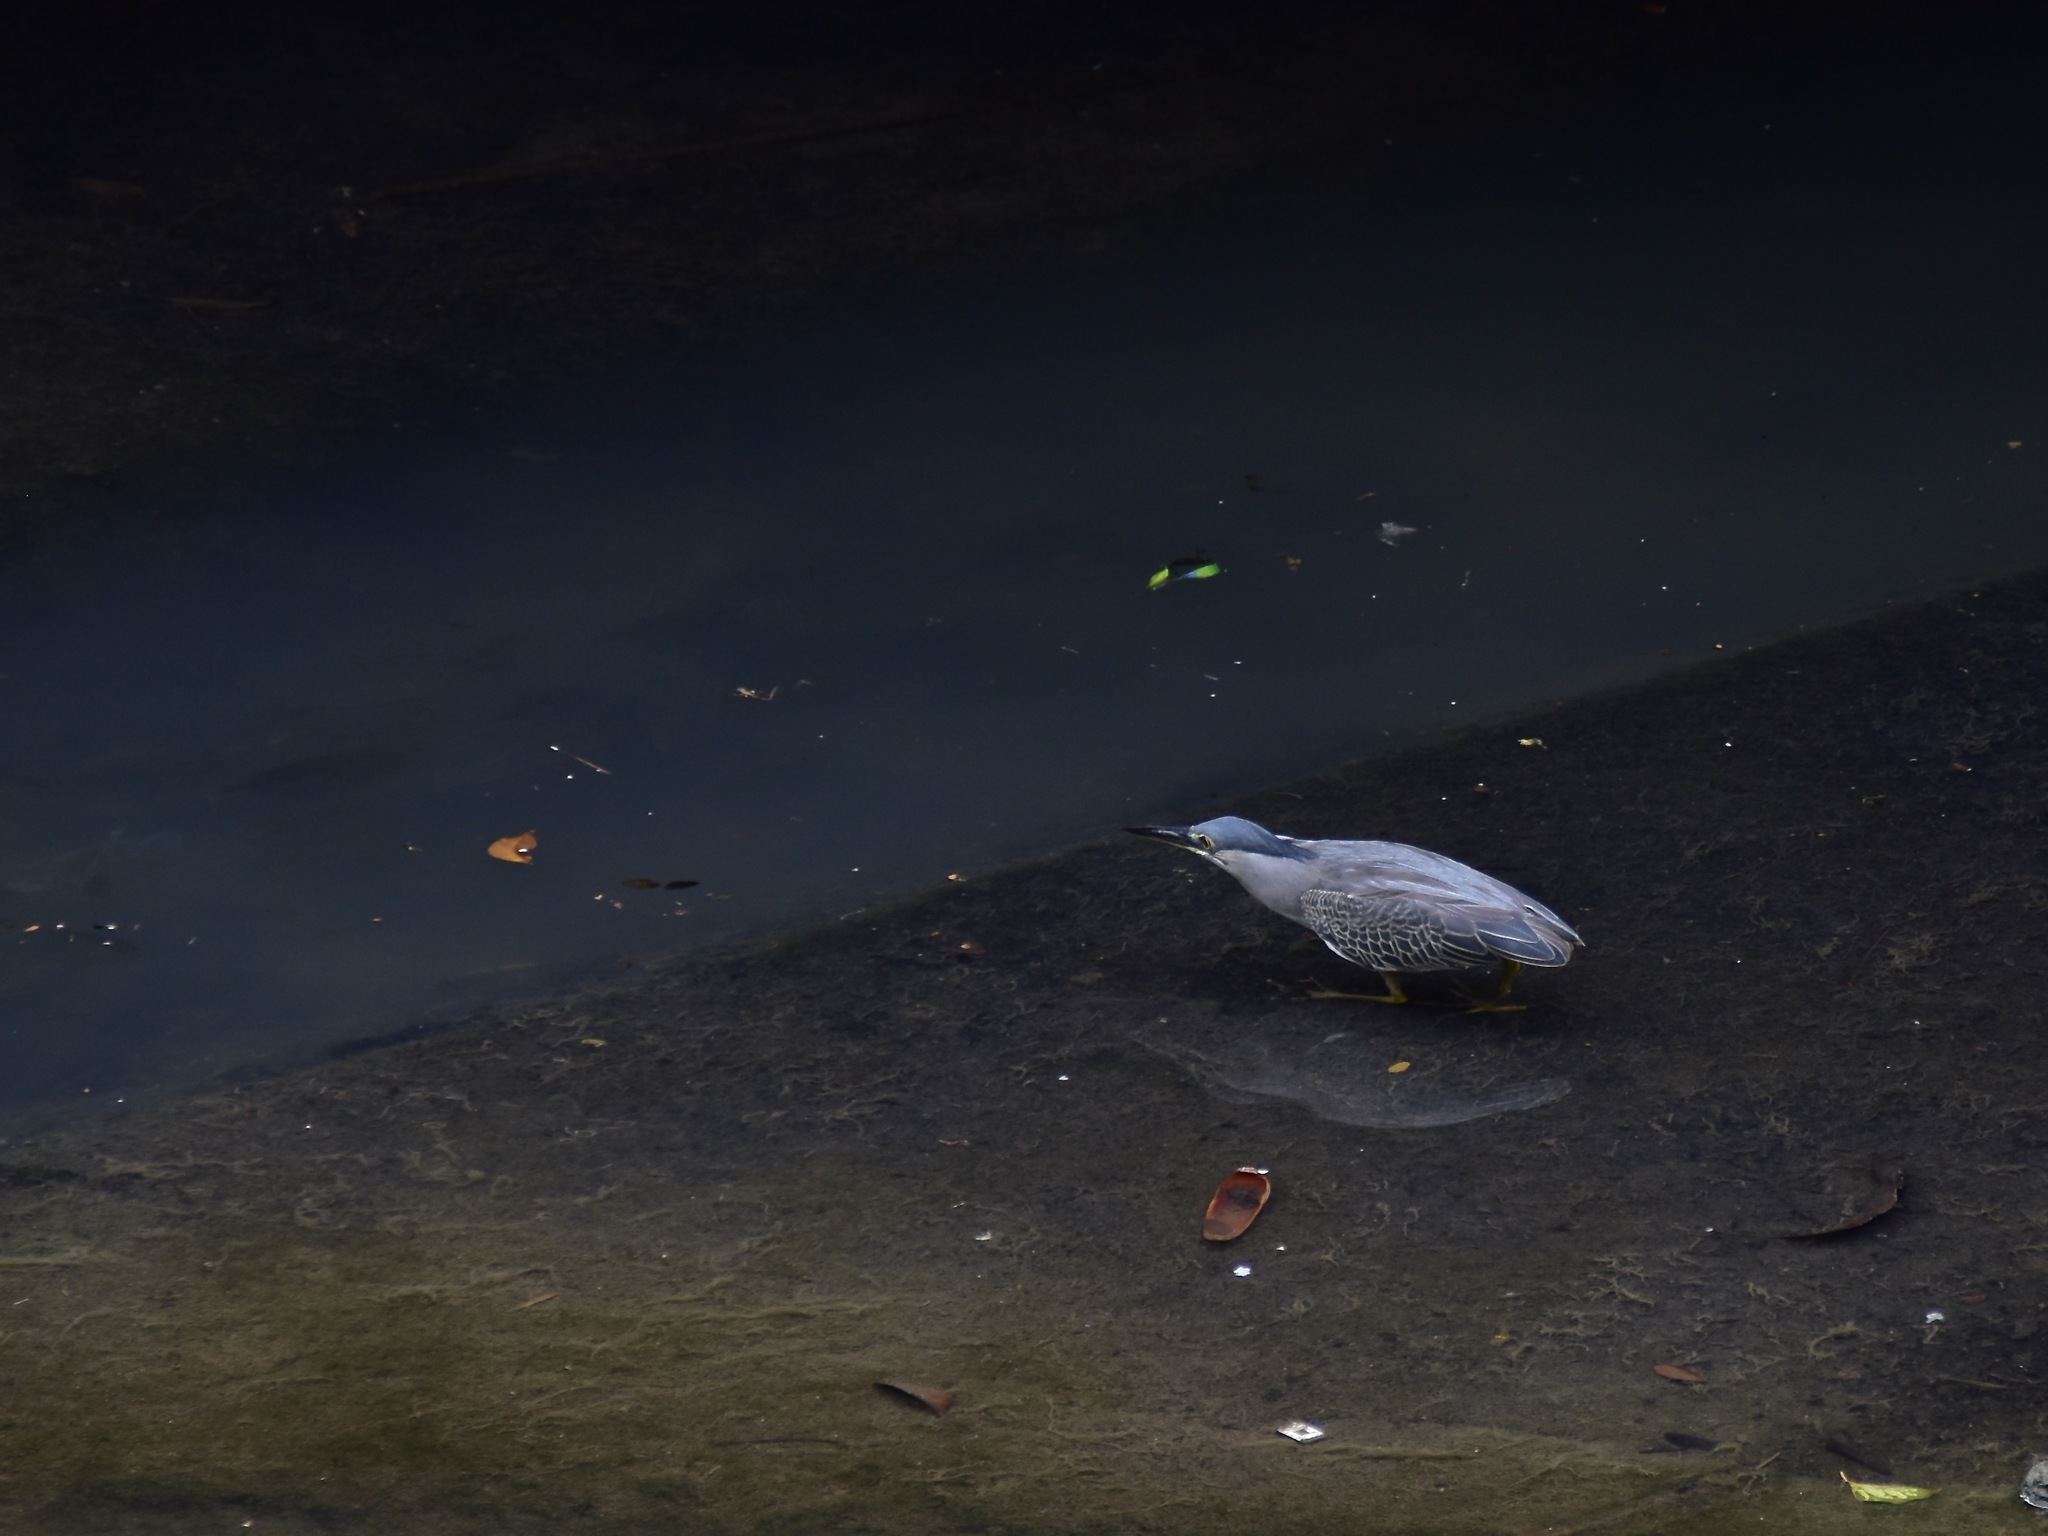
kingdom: Animalia
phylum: Chordata
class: Aves
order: Pelecaniformes
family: Ardeidae
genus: Butorides
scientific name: Butorides striata
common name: Striated heron
